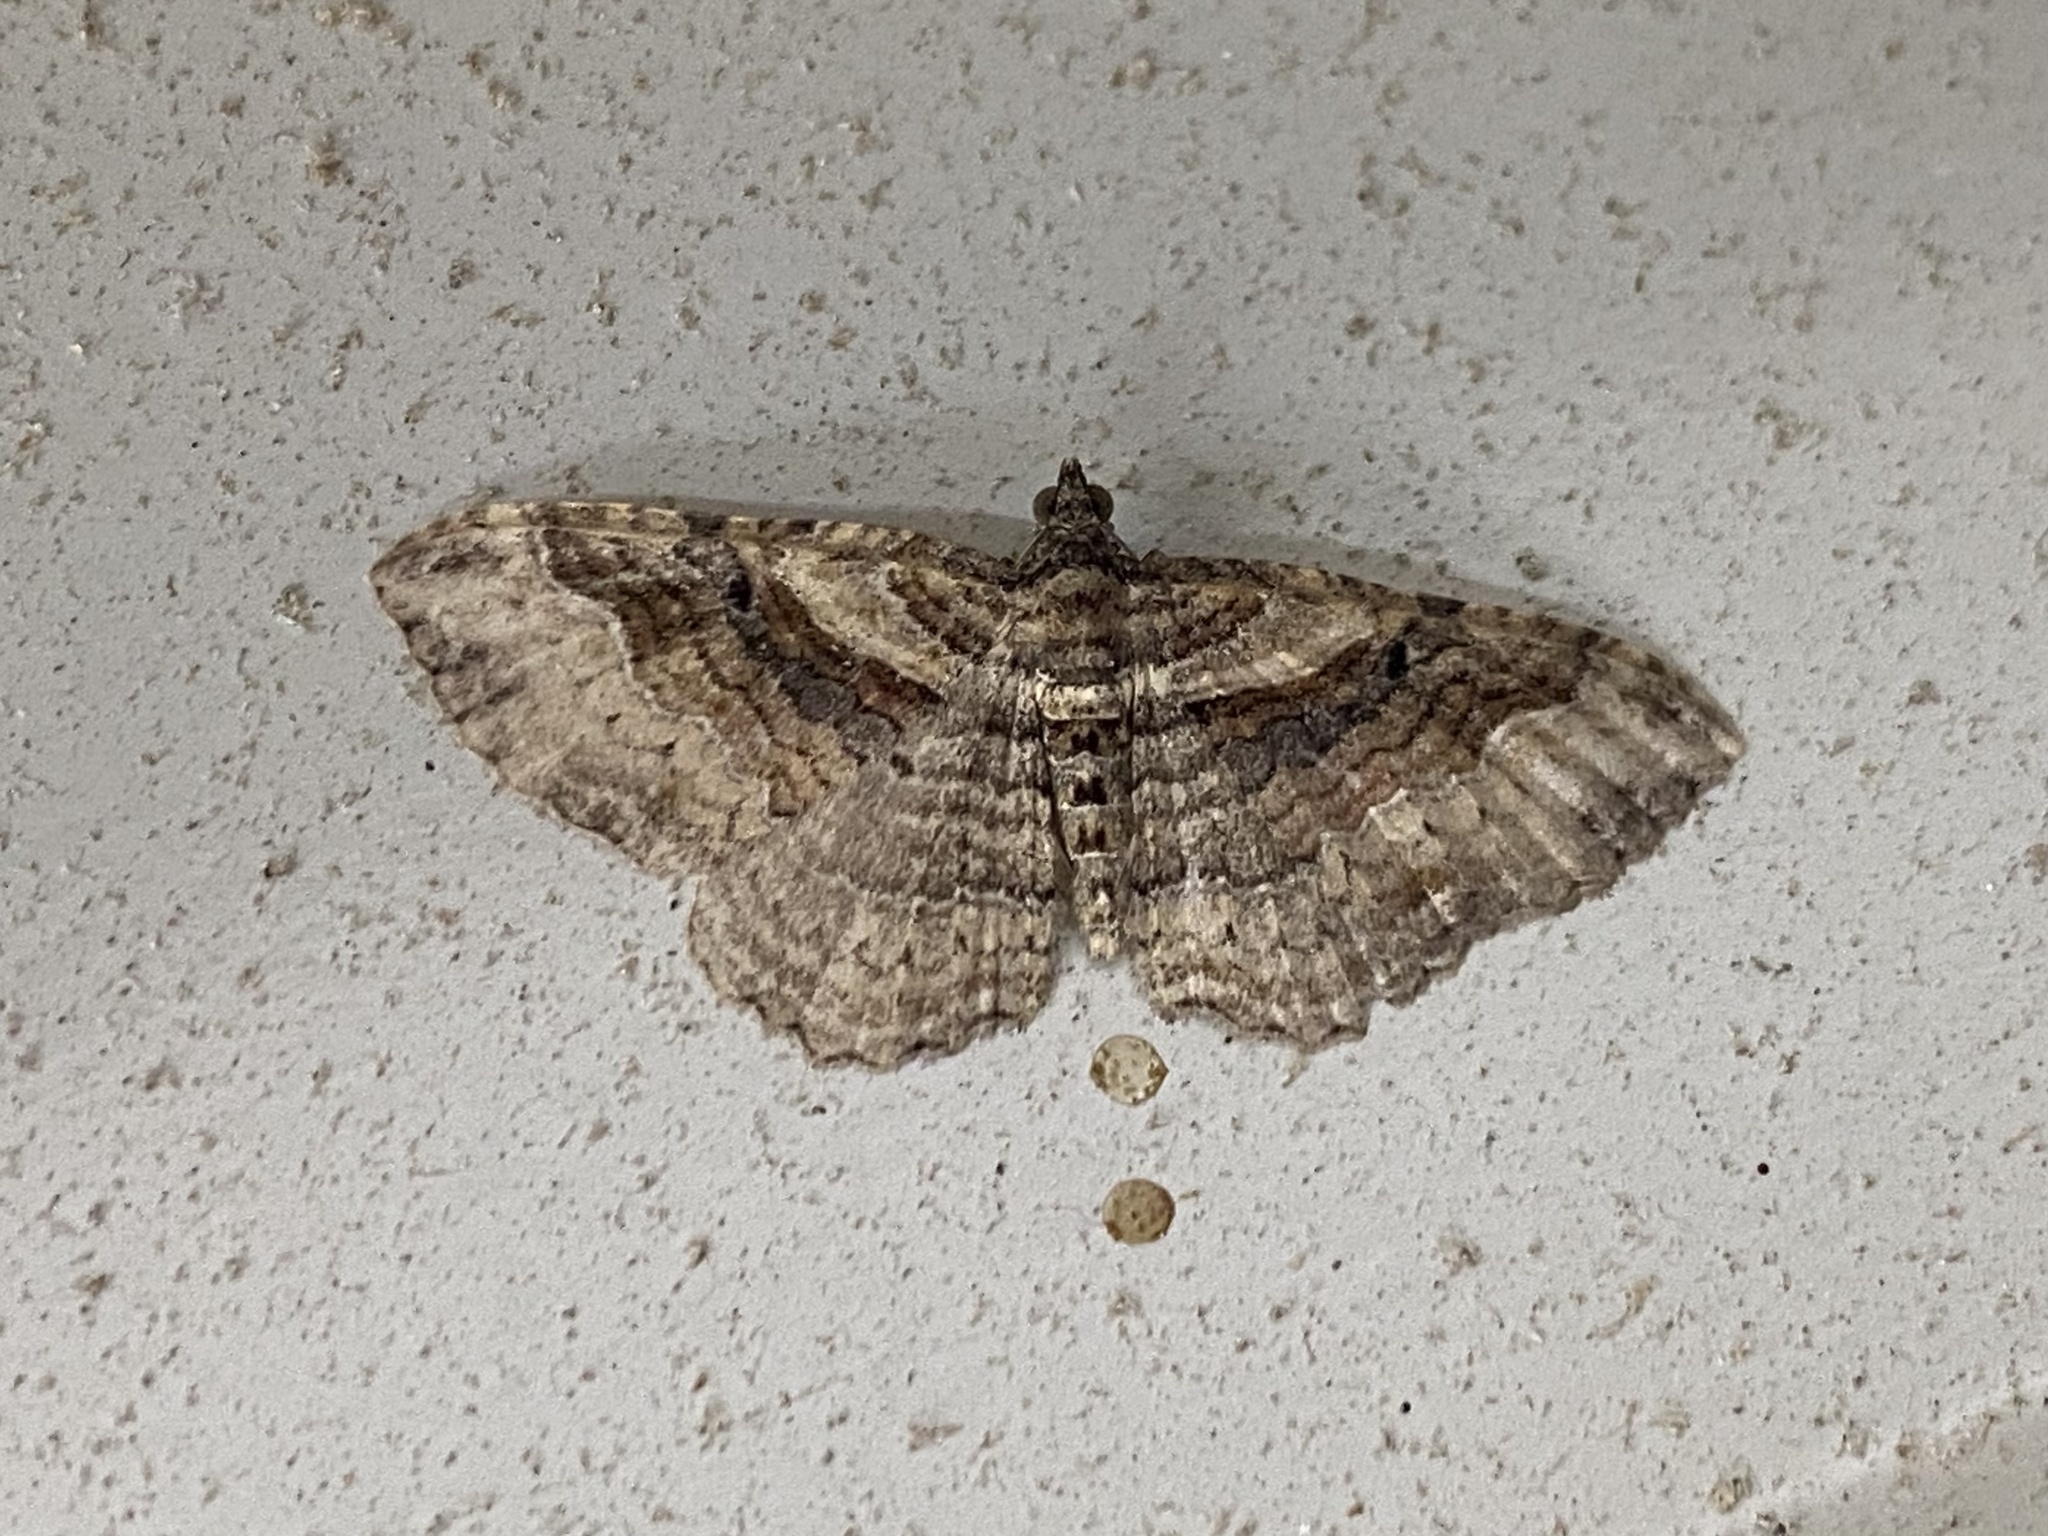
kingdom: Animalia
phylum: Arthropoda
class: Insecta
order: Lepidoptera
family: Geometridae
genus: Costaconvexa
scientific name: Costaconvexa centrostrigaria
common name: Bent-line carpet
